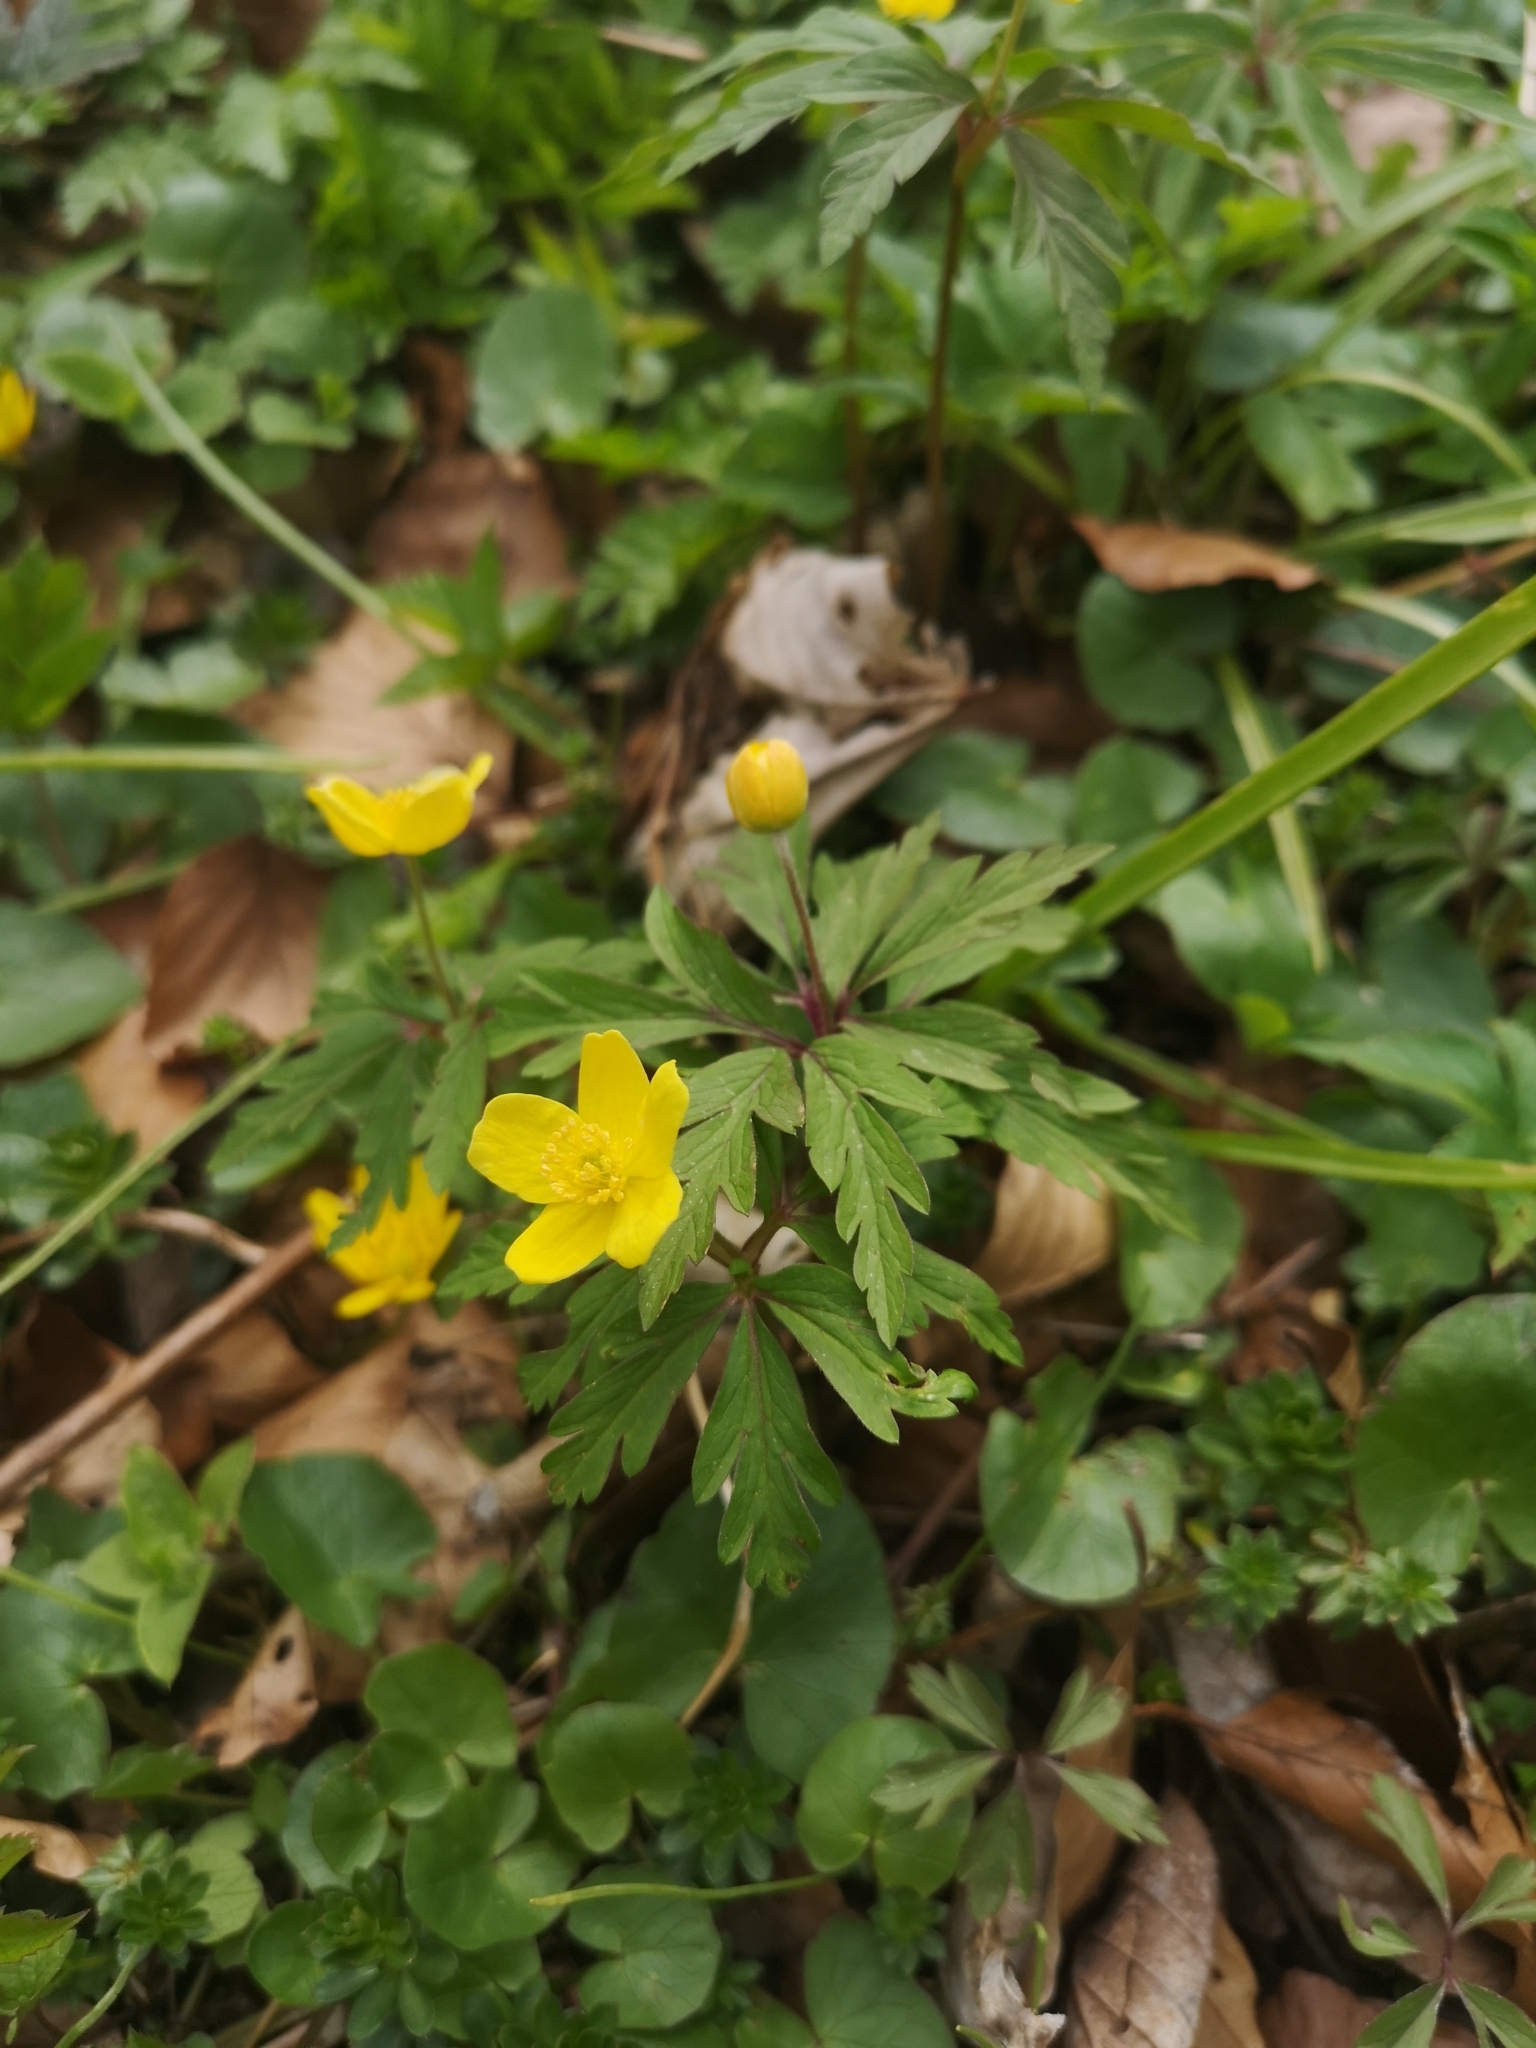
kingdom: Plantae
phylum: Tracheophyta
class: Magnoliopsida
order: Ranunculales
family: Ranunculaceae
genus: Anemone
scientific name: Anemone ranunculoides
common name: Yellow anemone
